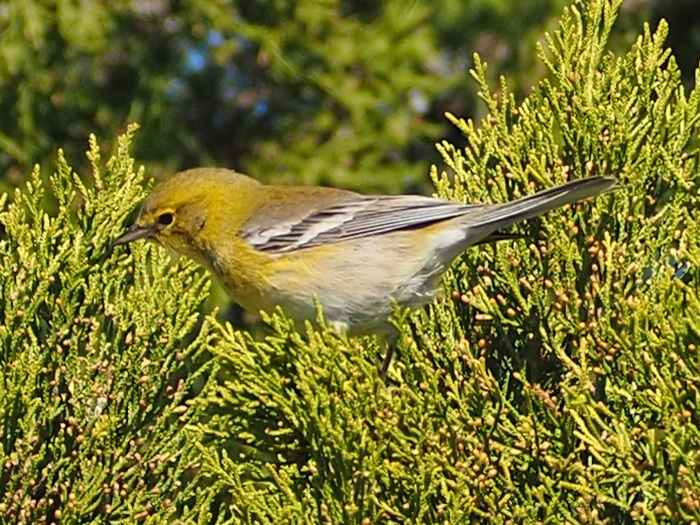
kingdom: Animalia
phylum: Chordata
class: Aves
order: Passeriformes
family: Parulidae
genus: Setophaga
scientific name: Setophaga pinus
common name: Pine warbler
